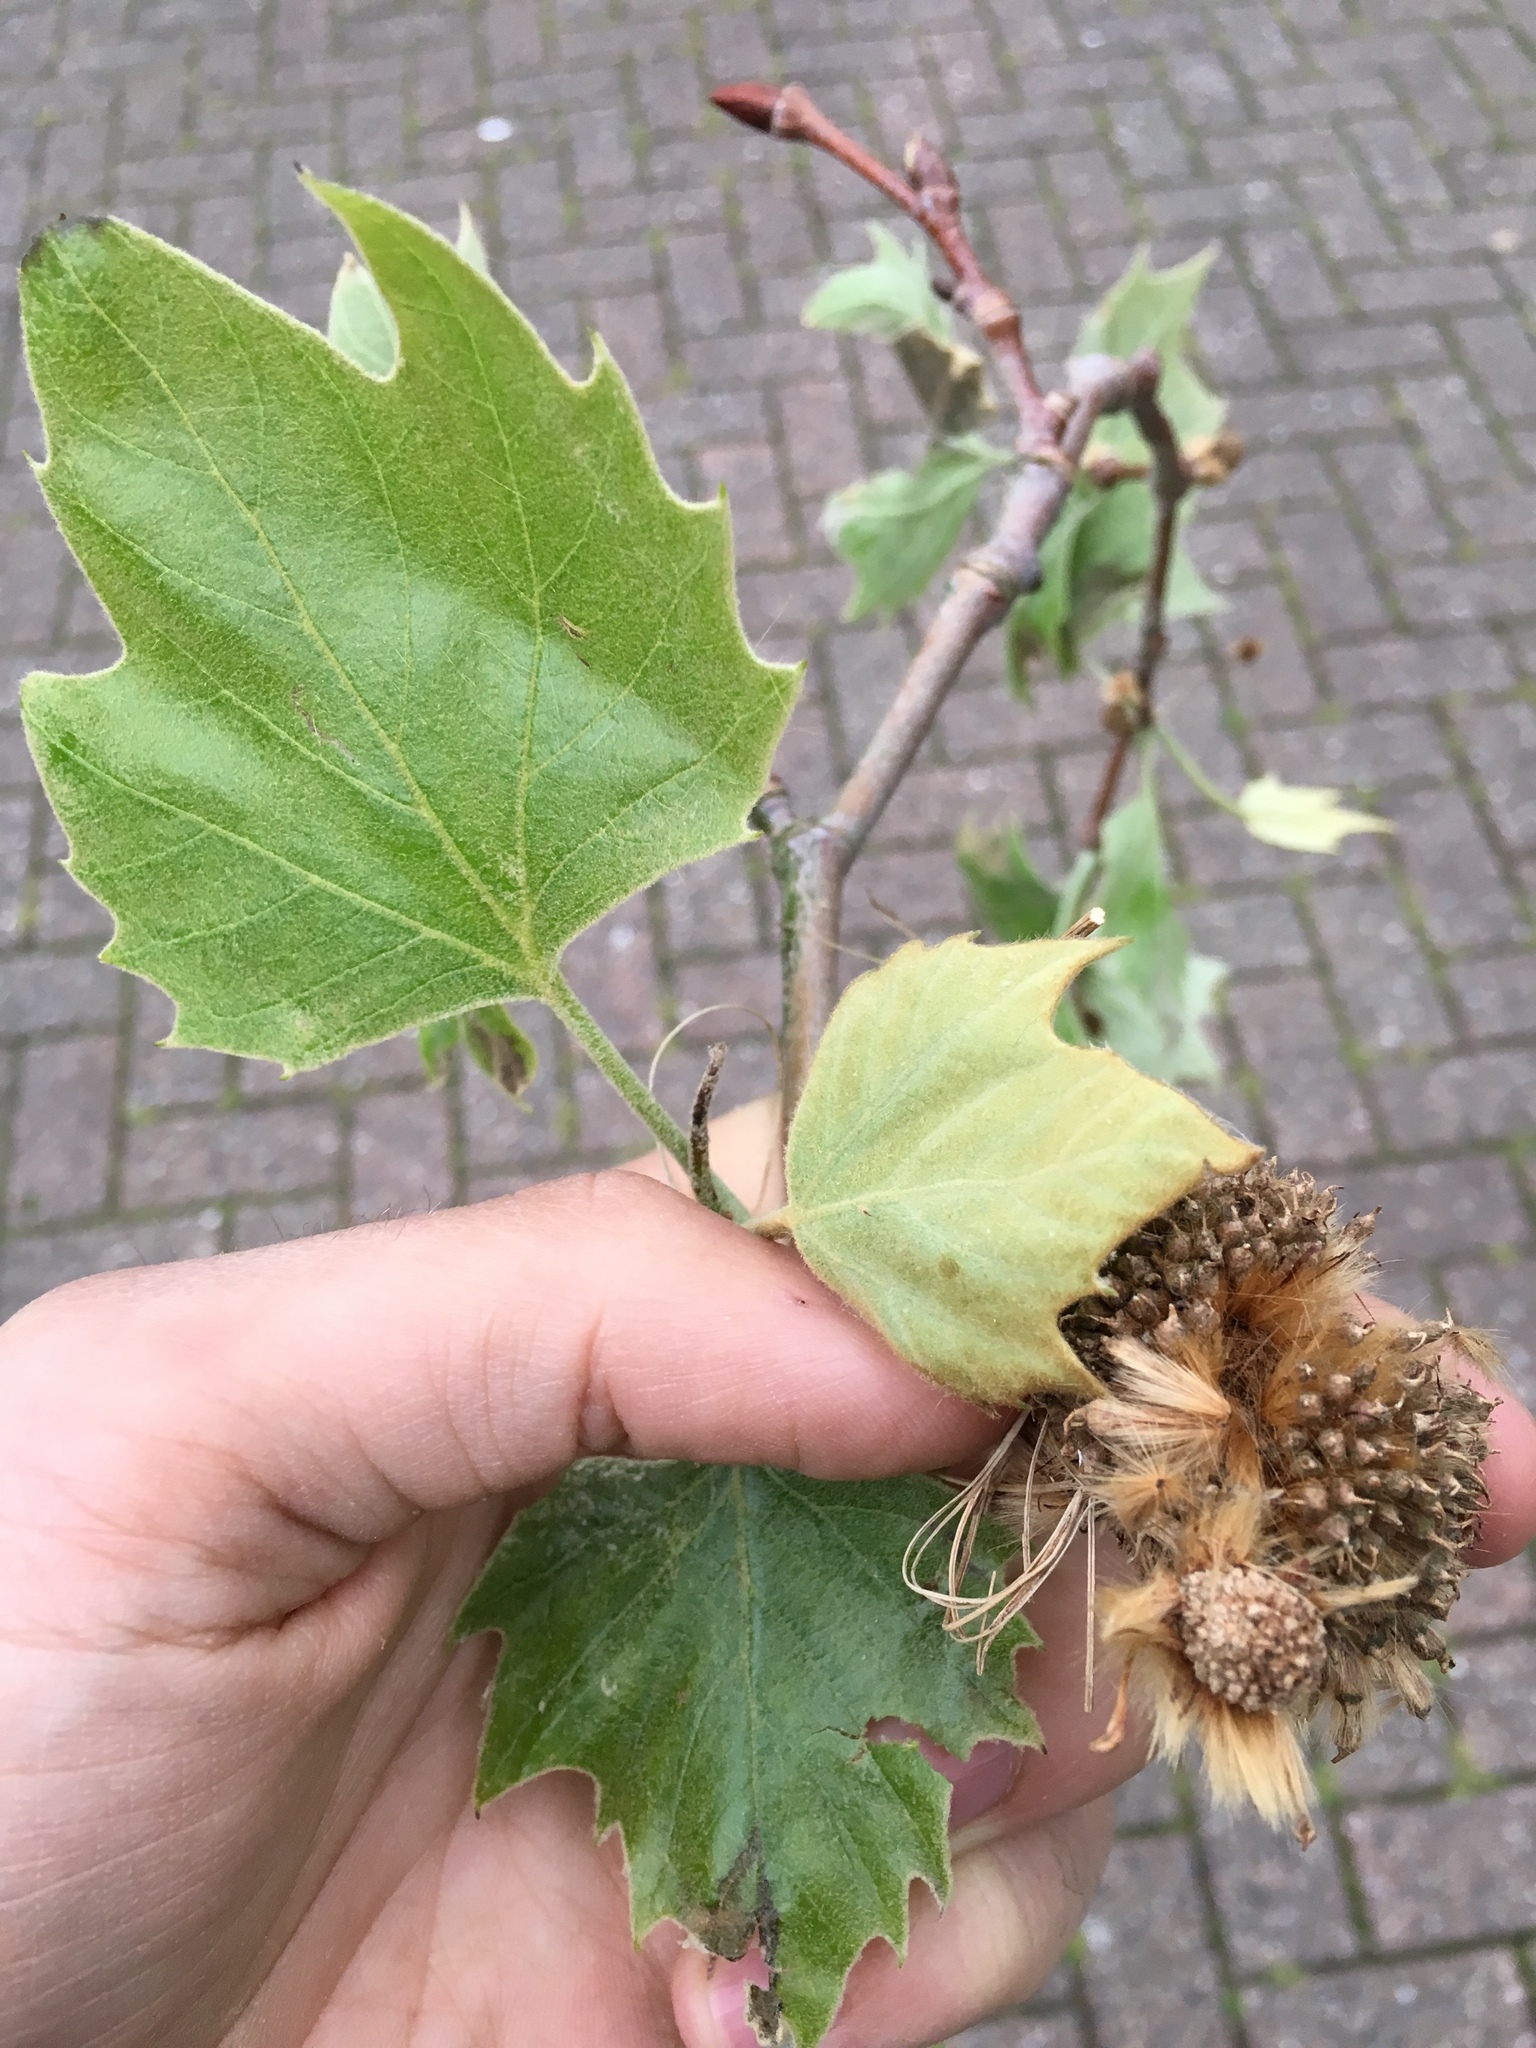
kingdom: Plantae
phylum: Tracheophyta
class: Magnoliopsida
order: Proteales
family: Platanaceae
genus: Platanus
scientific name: Platanus hispanica
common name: London plane
